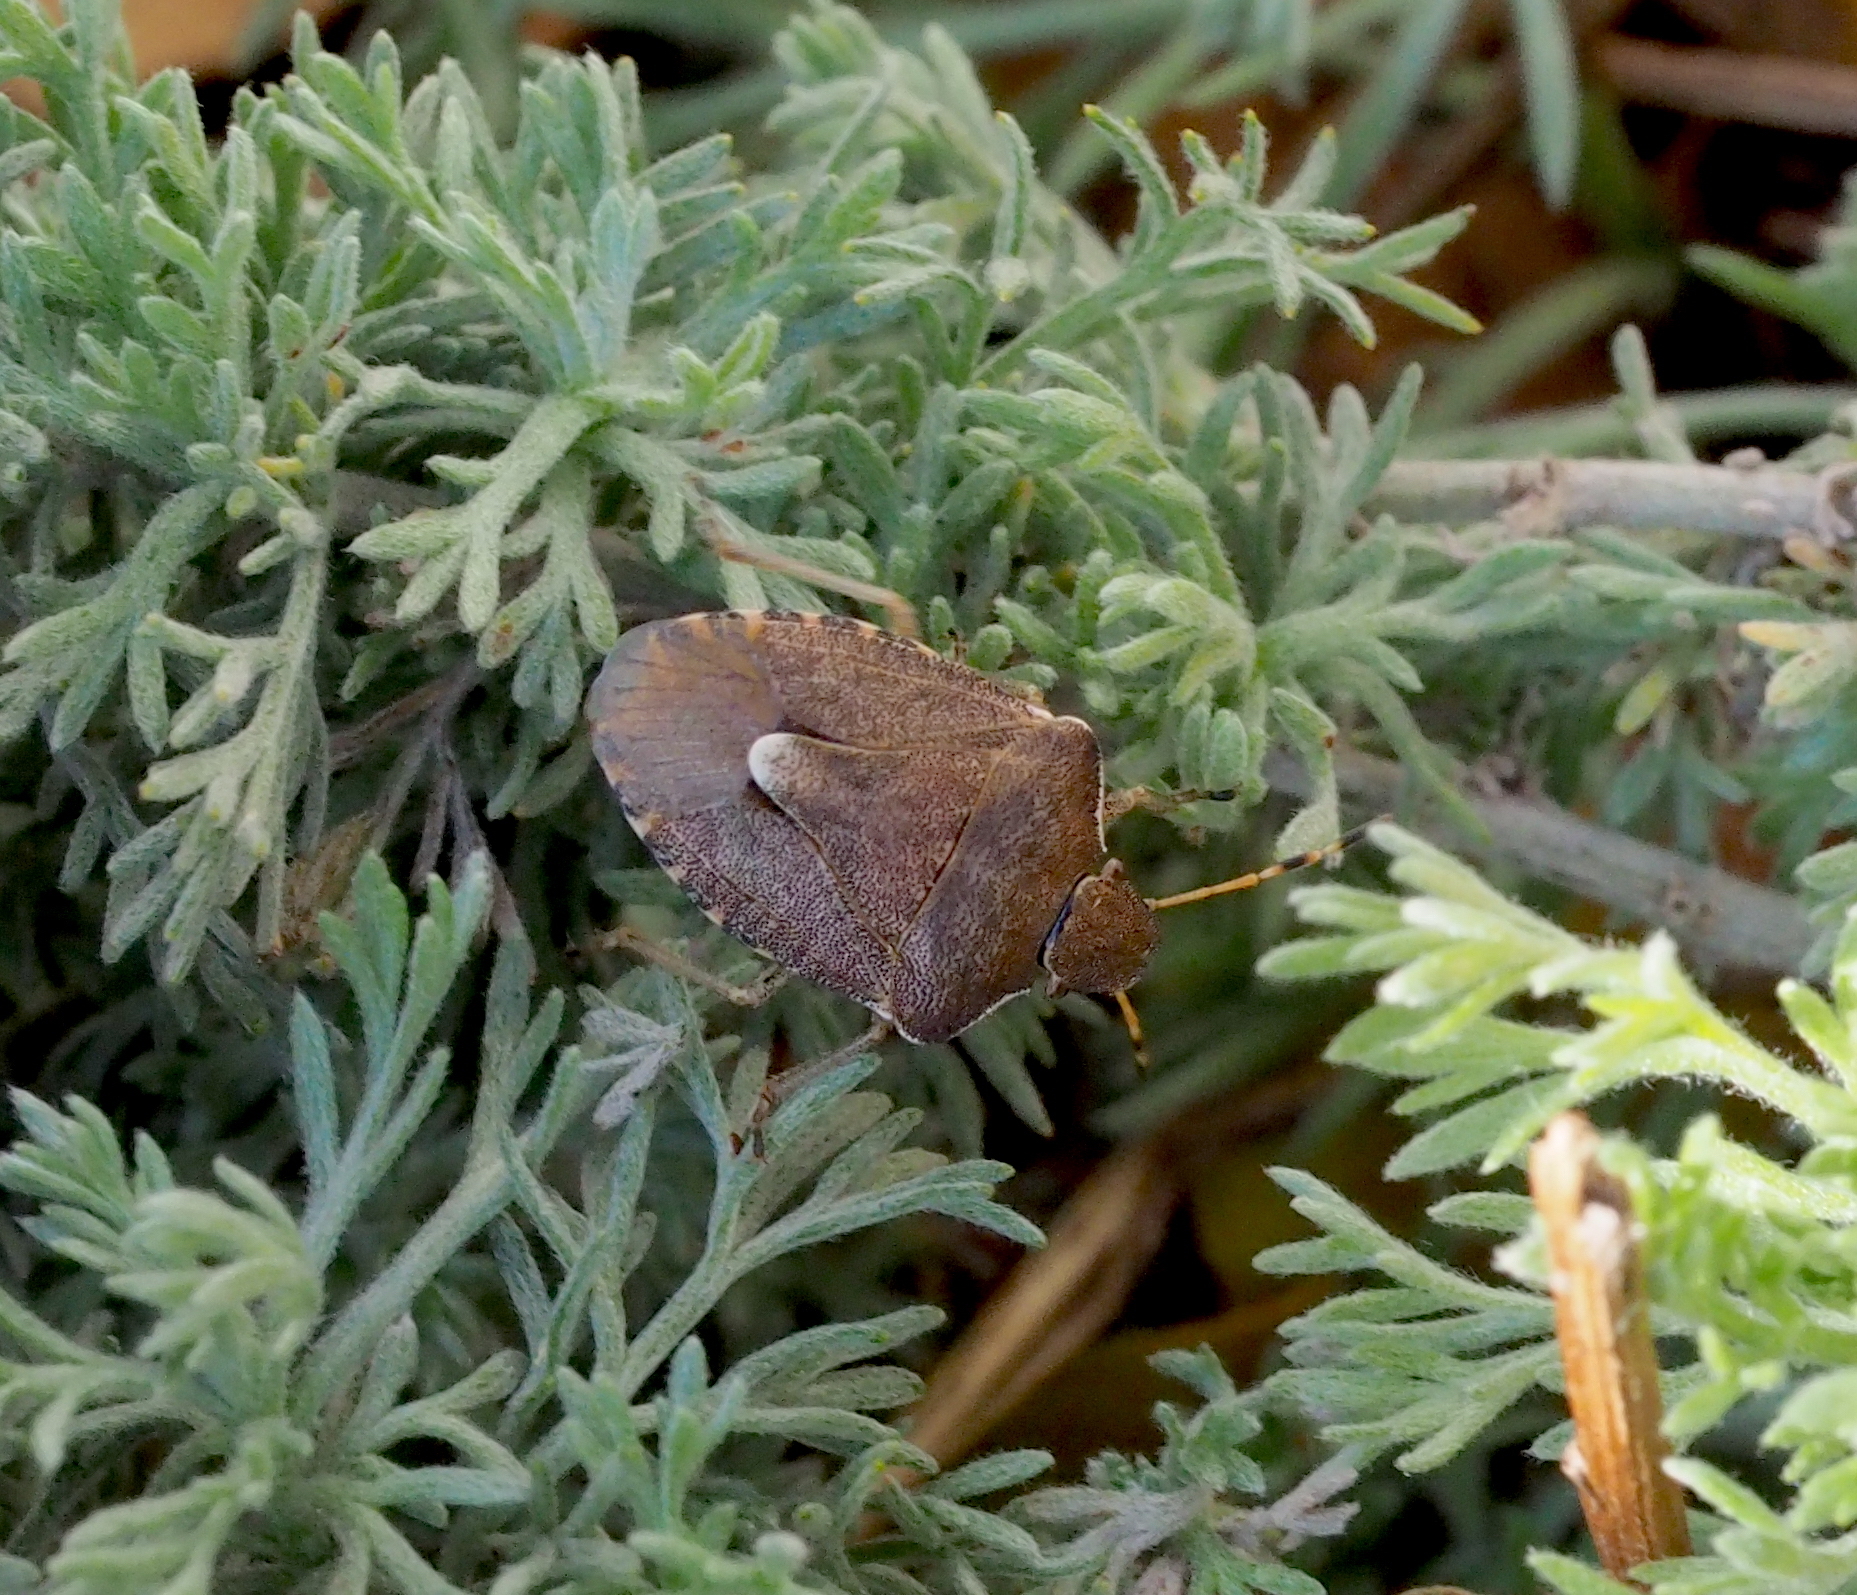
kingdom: Animalia
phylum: Arthropoda
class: Insecta
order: Hemiptera
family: Pentatomidae
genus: Holcostethus
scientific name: Holcostethus strictus
